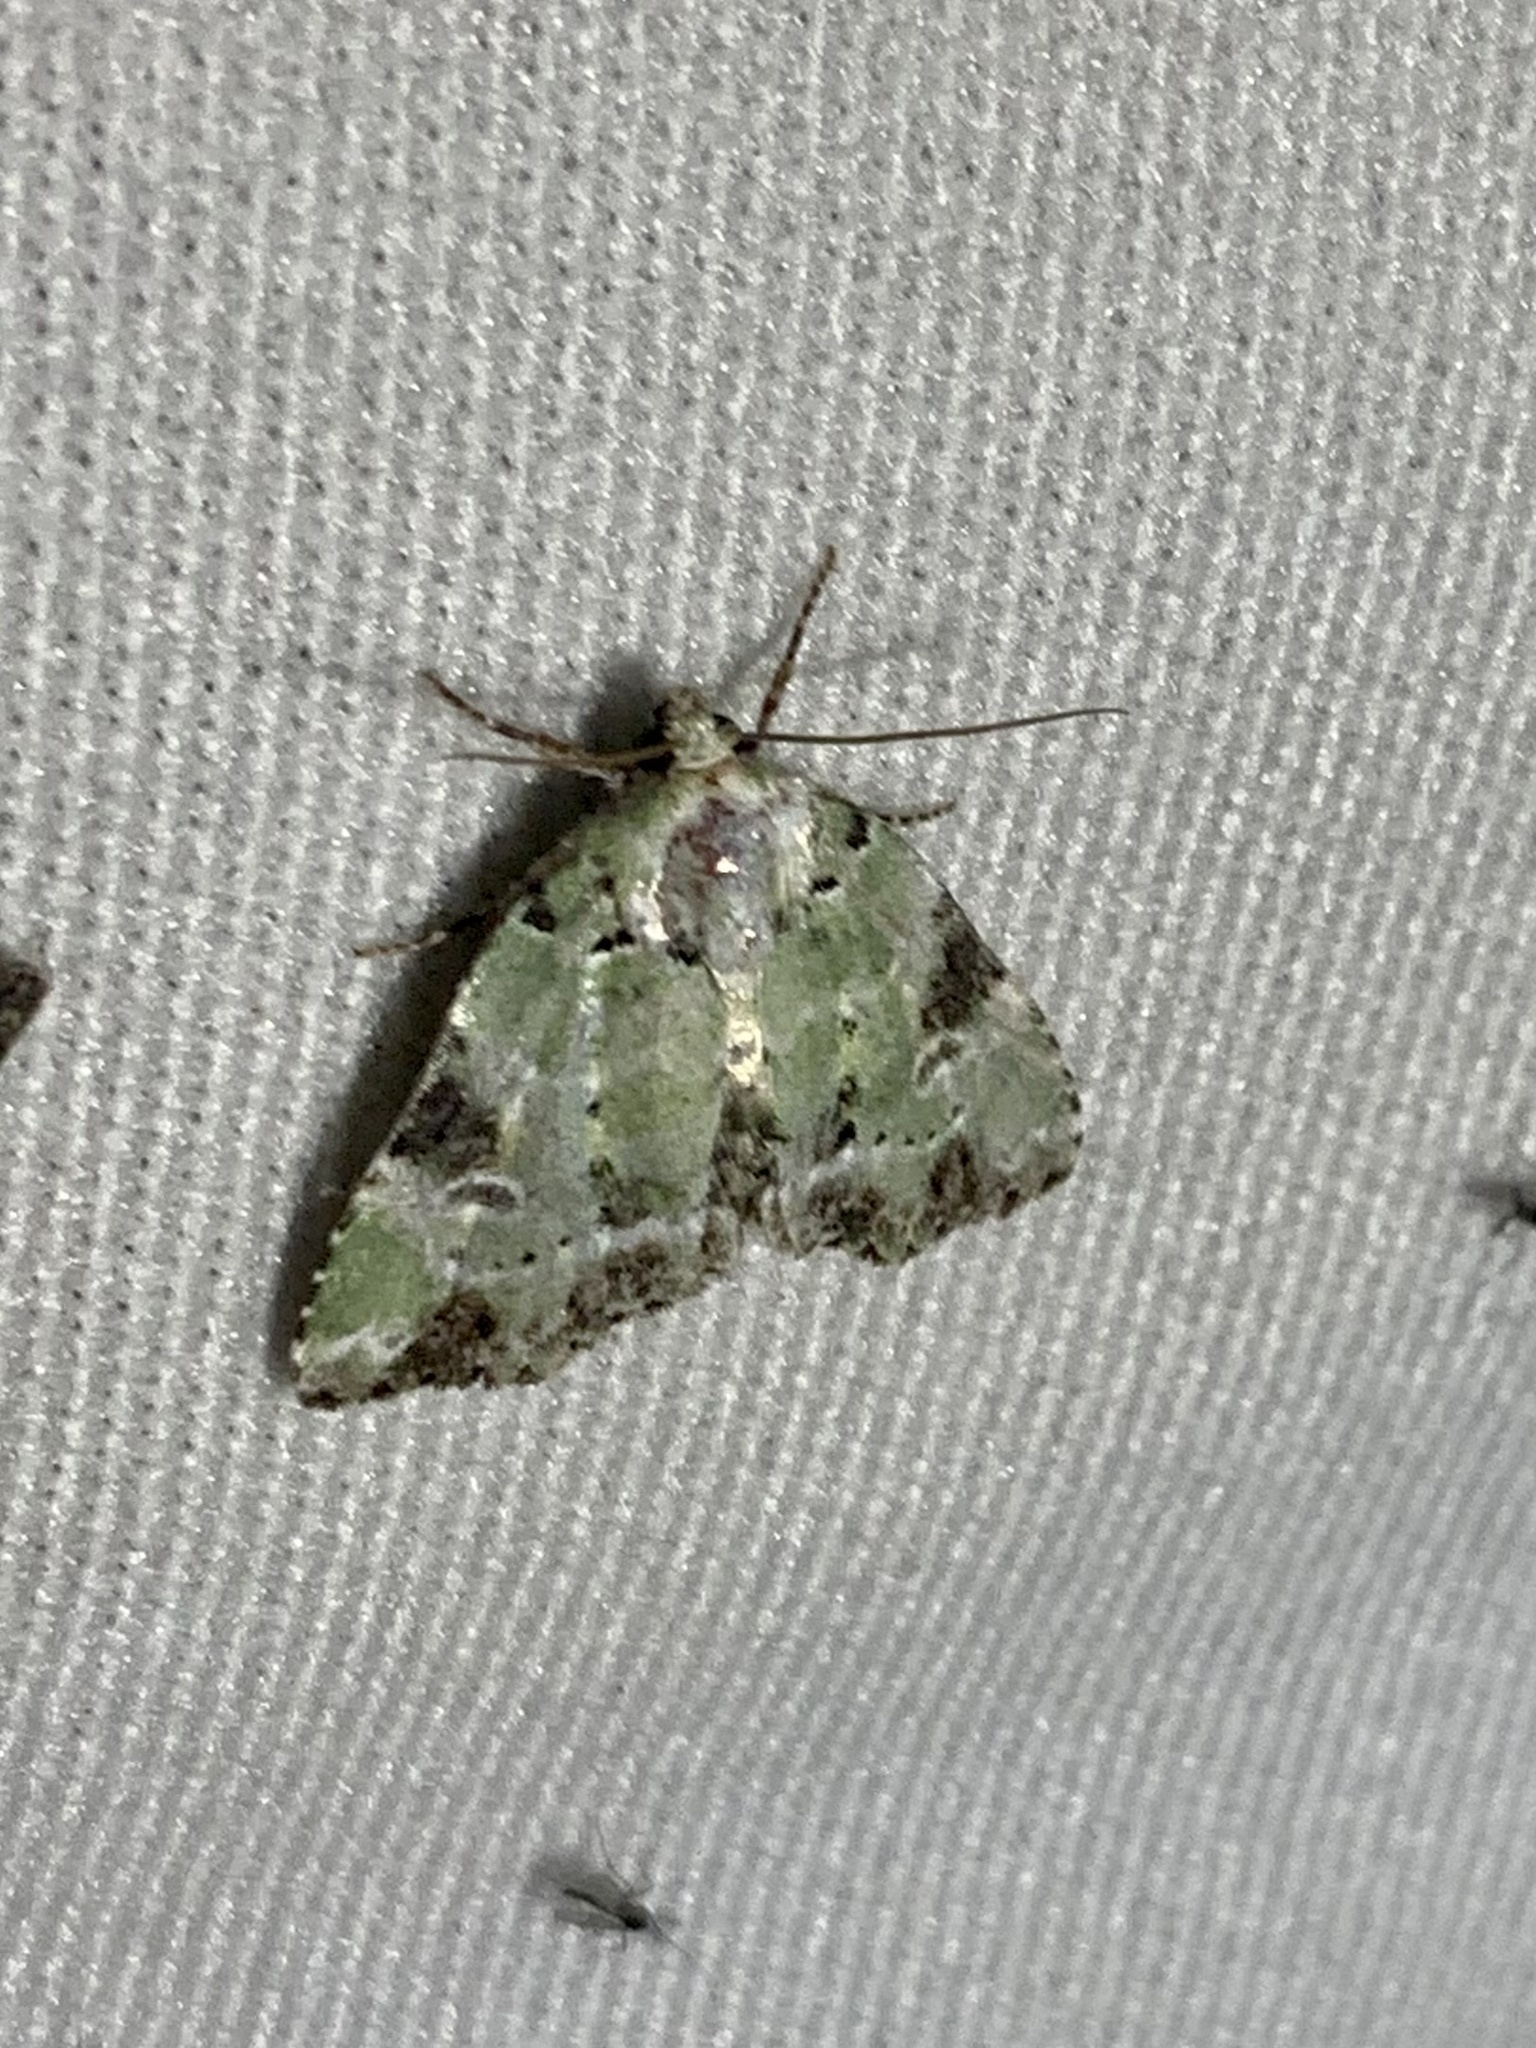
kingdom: Animalia
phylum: Arthropoda
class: Insecta
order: Lepidoptera
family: Noctuidae
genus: Chytonix
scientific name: Chytonix pyrrha
